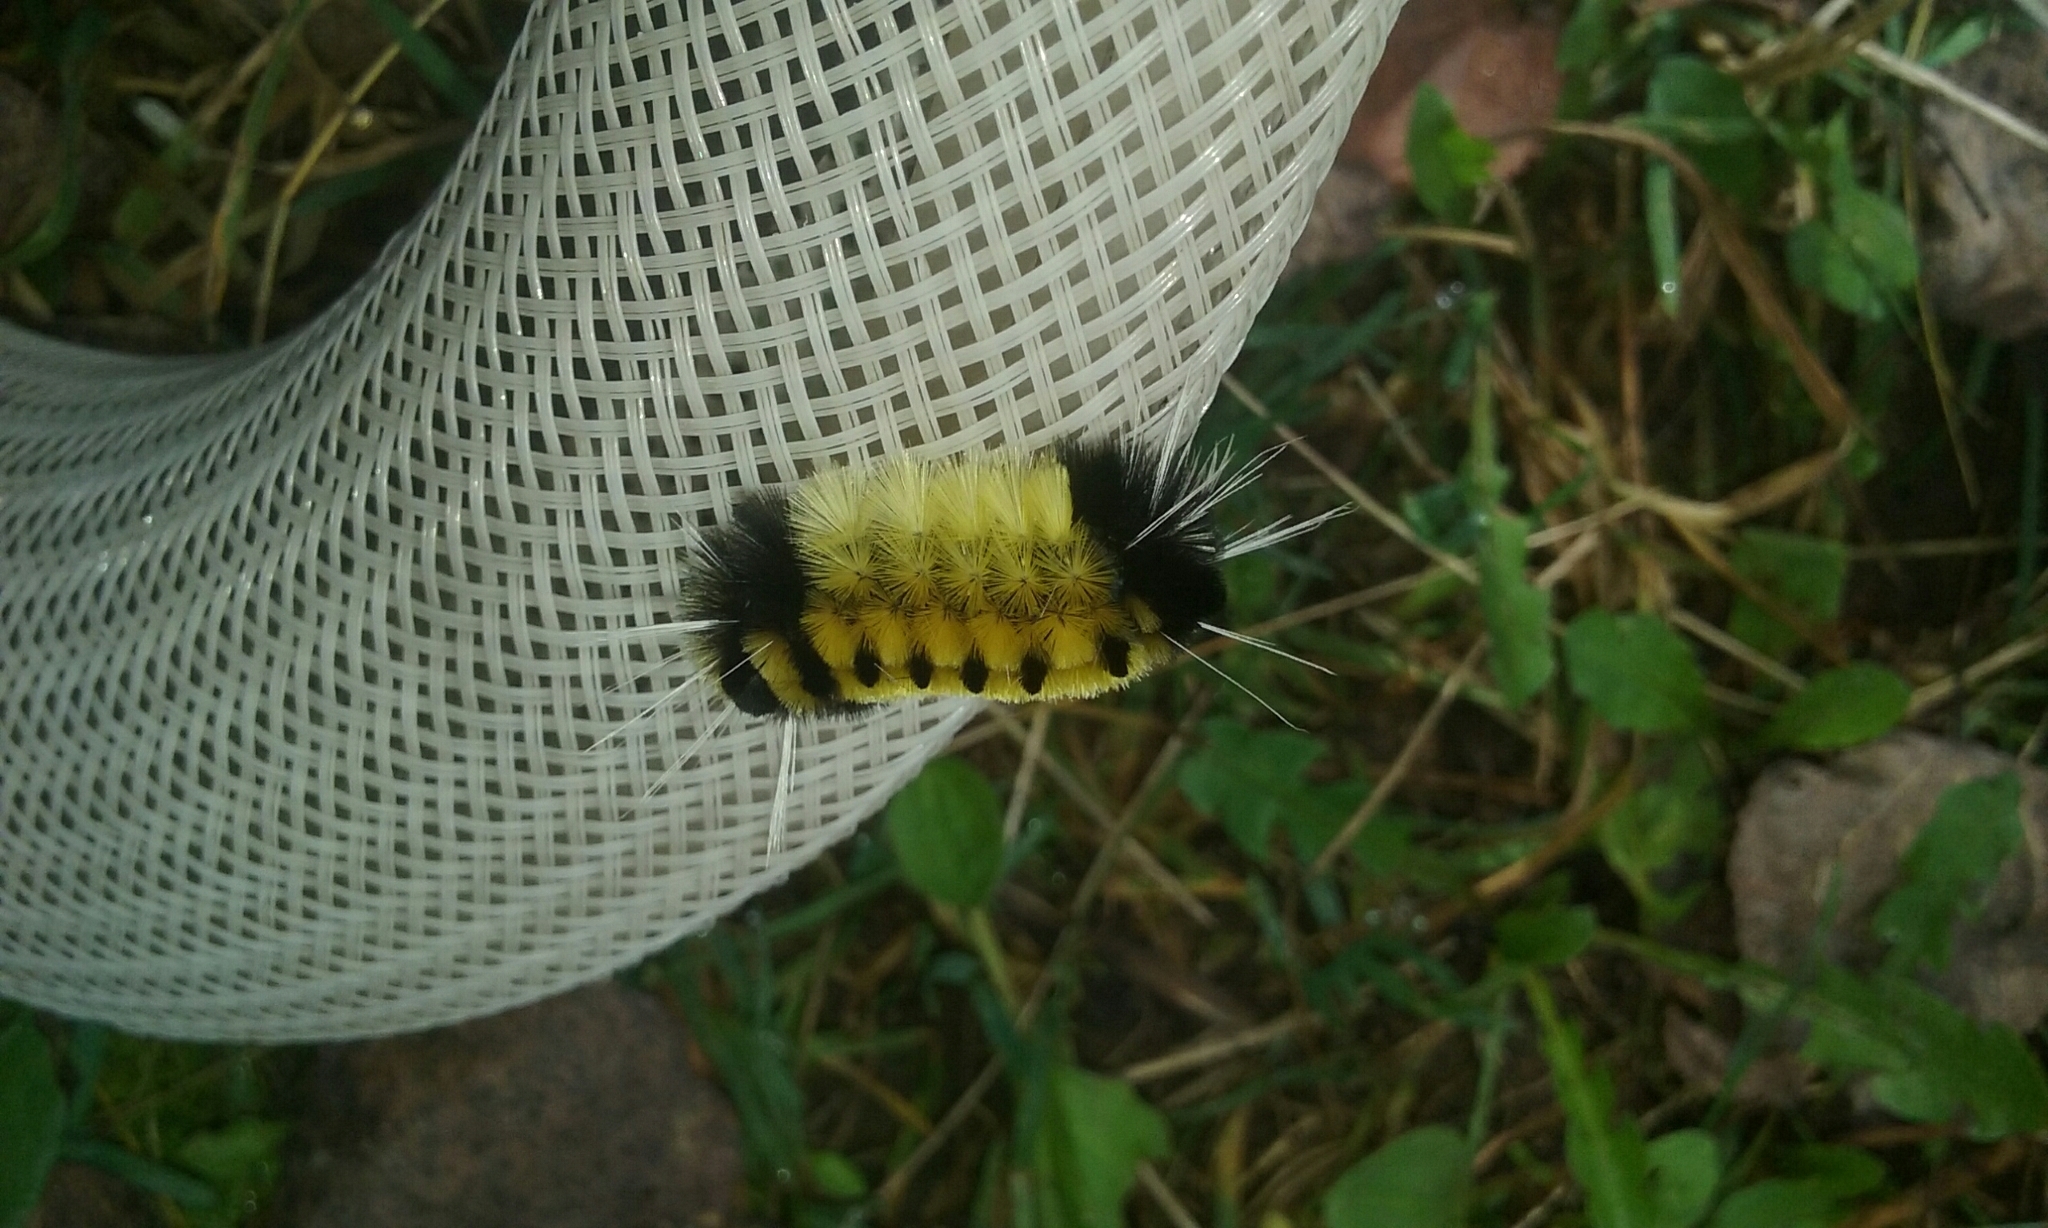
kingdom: Animalia
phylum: Arthropoda
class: Insecta
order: Lepidoptera
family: Erebidae
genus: Lophocampa
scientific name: Lophocampa maculata
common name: Spotted tussock moth
